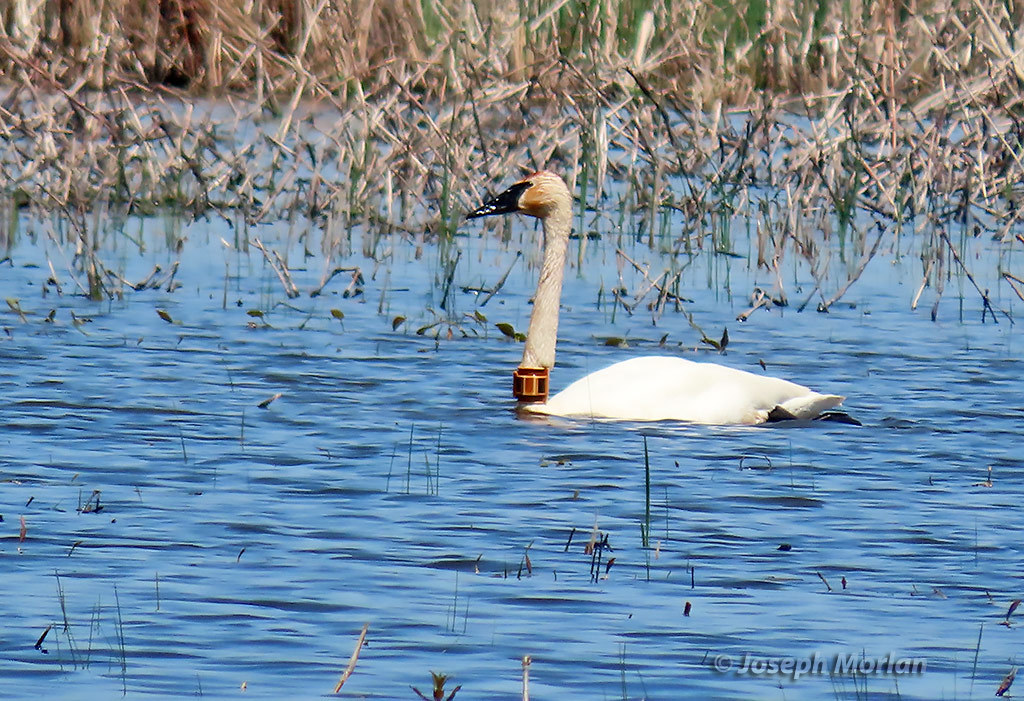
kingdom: Animalia
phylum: Chordata
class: Aves
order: Anseriformes
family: Anatidae
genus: Cygnus
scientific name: Cygnus buccinator
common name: Trumpeter swan
